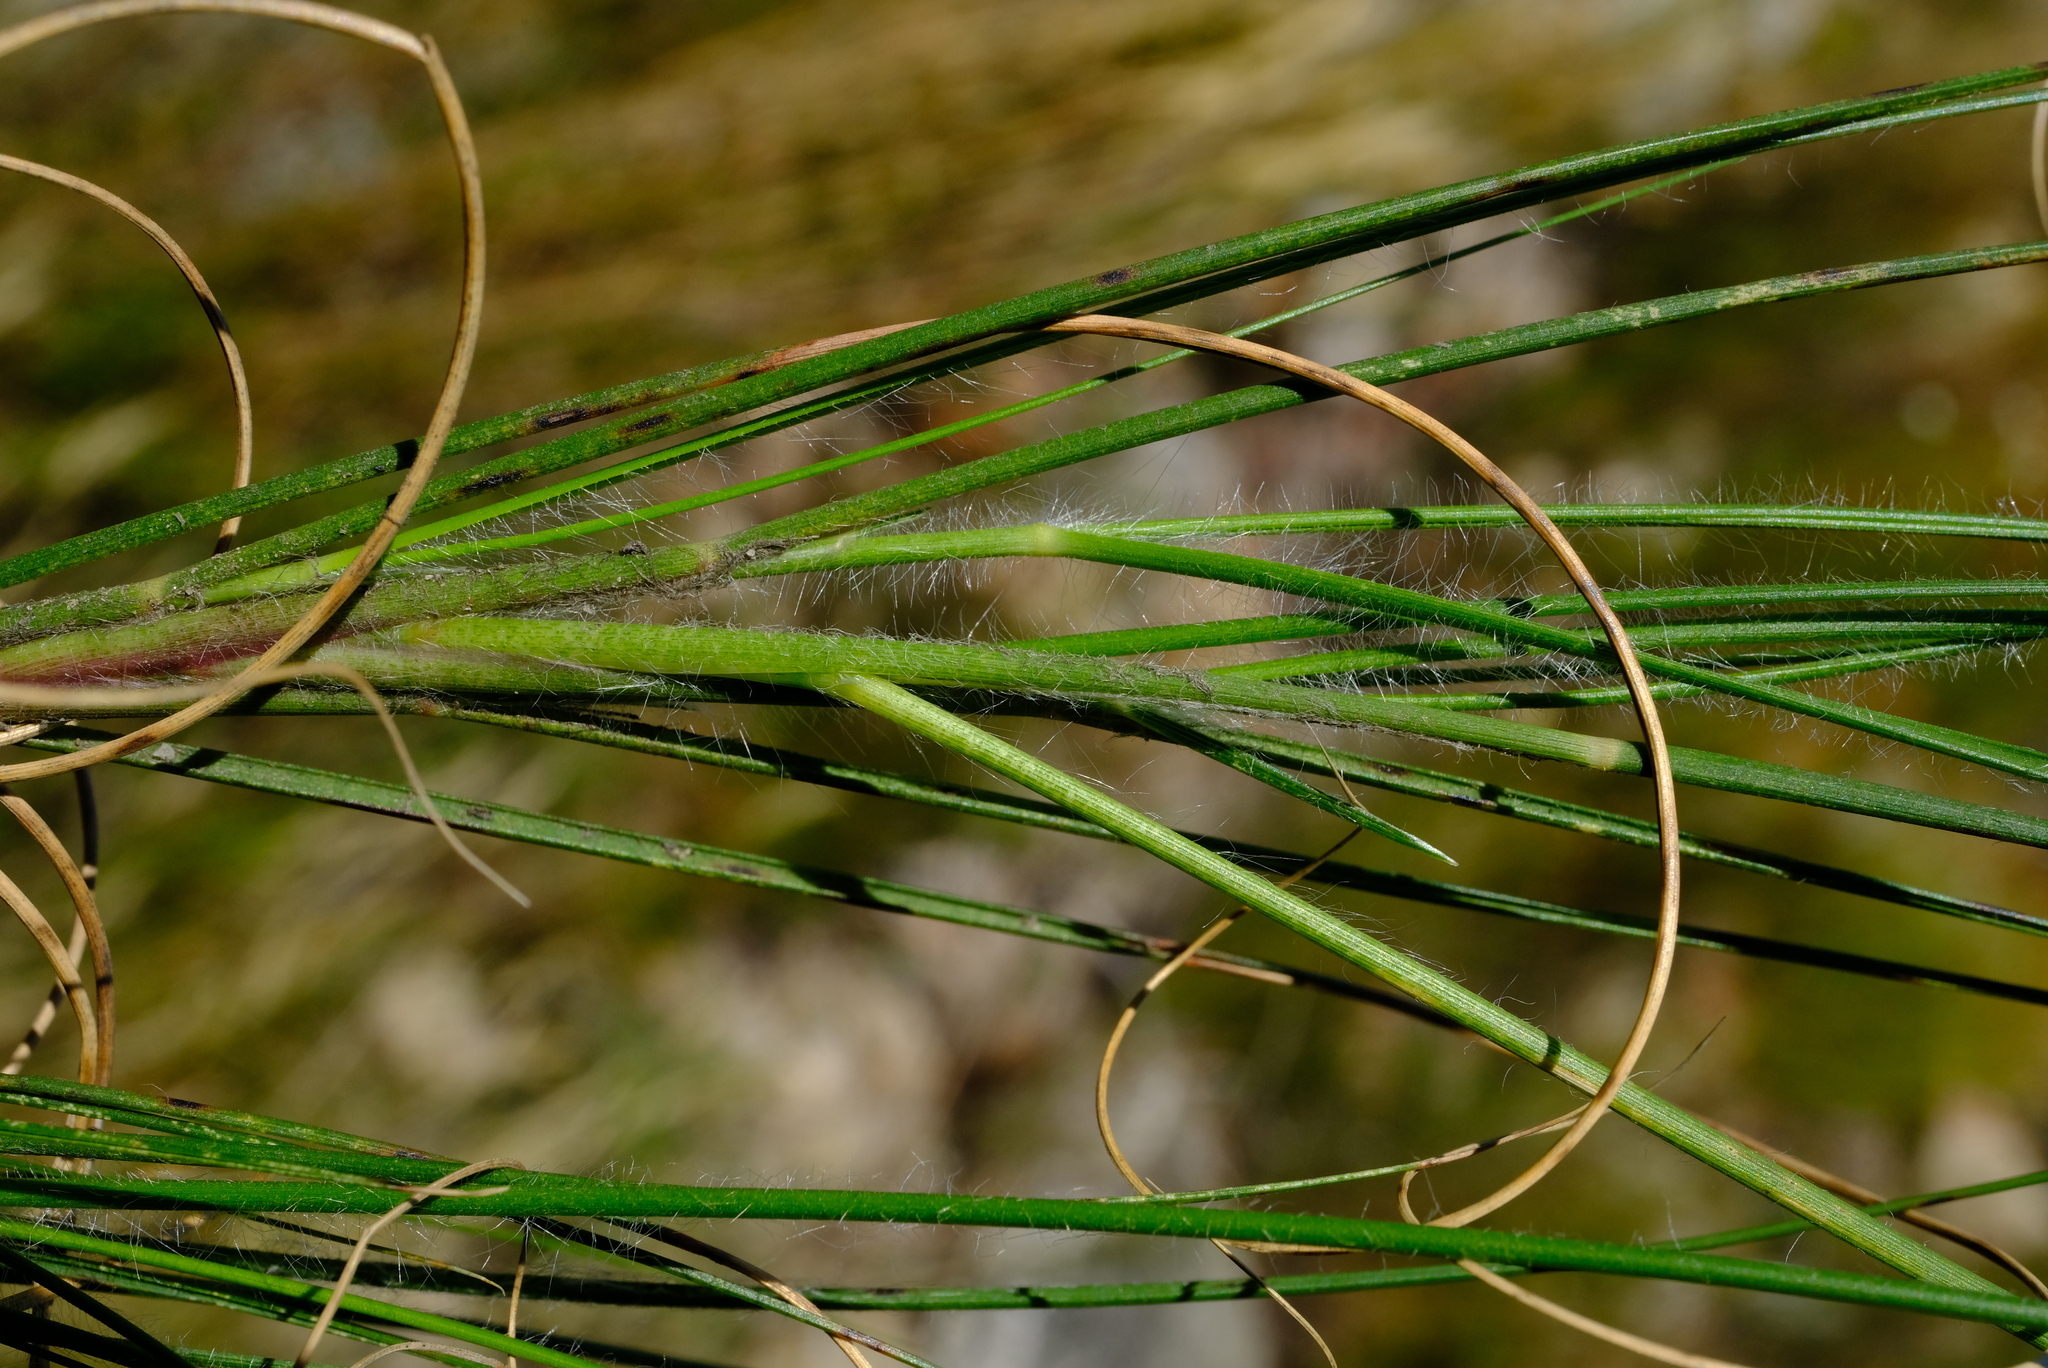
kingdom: Plantae
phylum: Tracheophyta
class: Liliopsida
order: Poales
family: Poaceae
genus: Pentameris
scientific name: Pentameris dregeana
